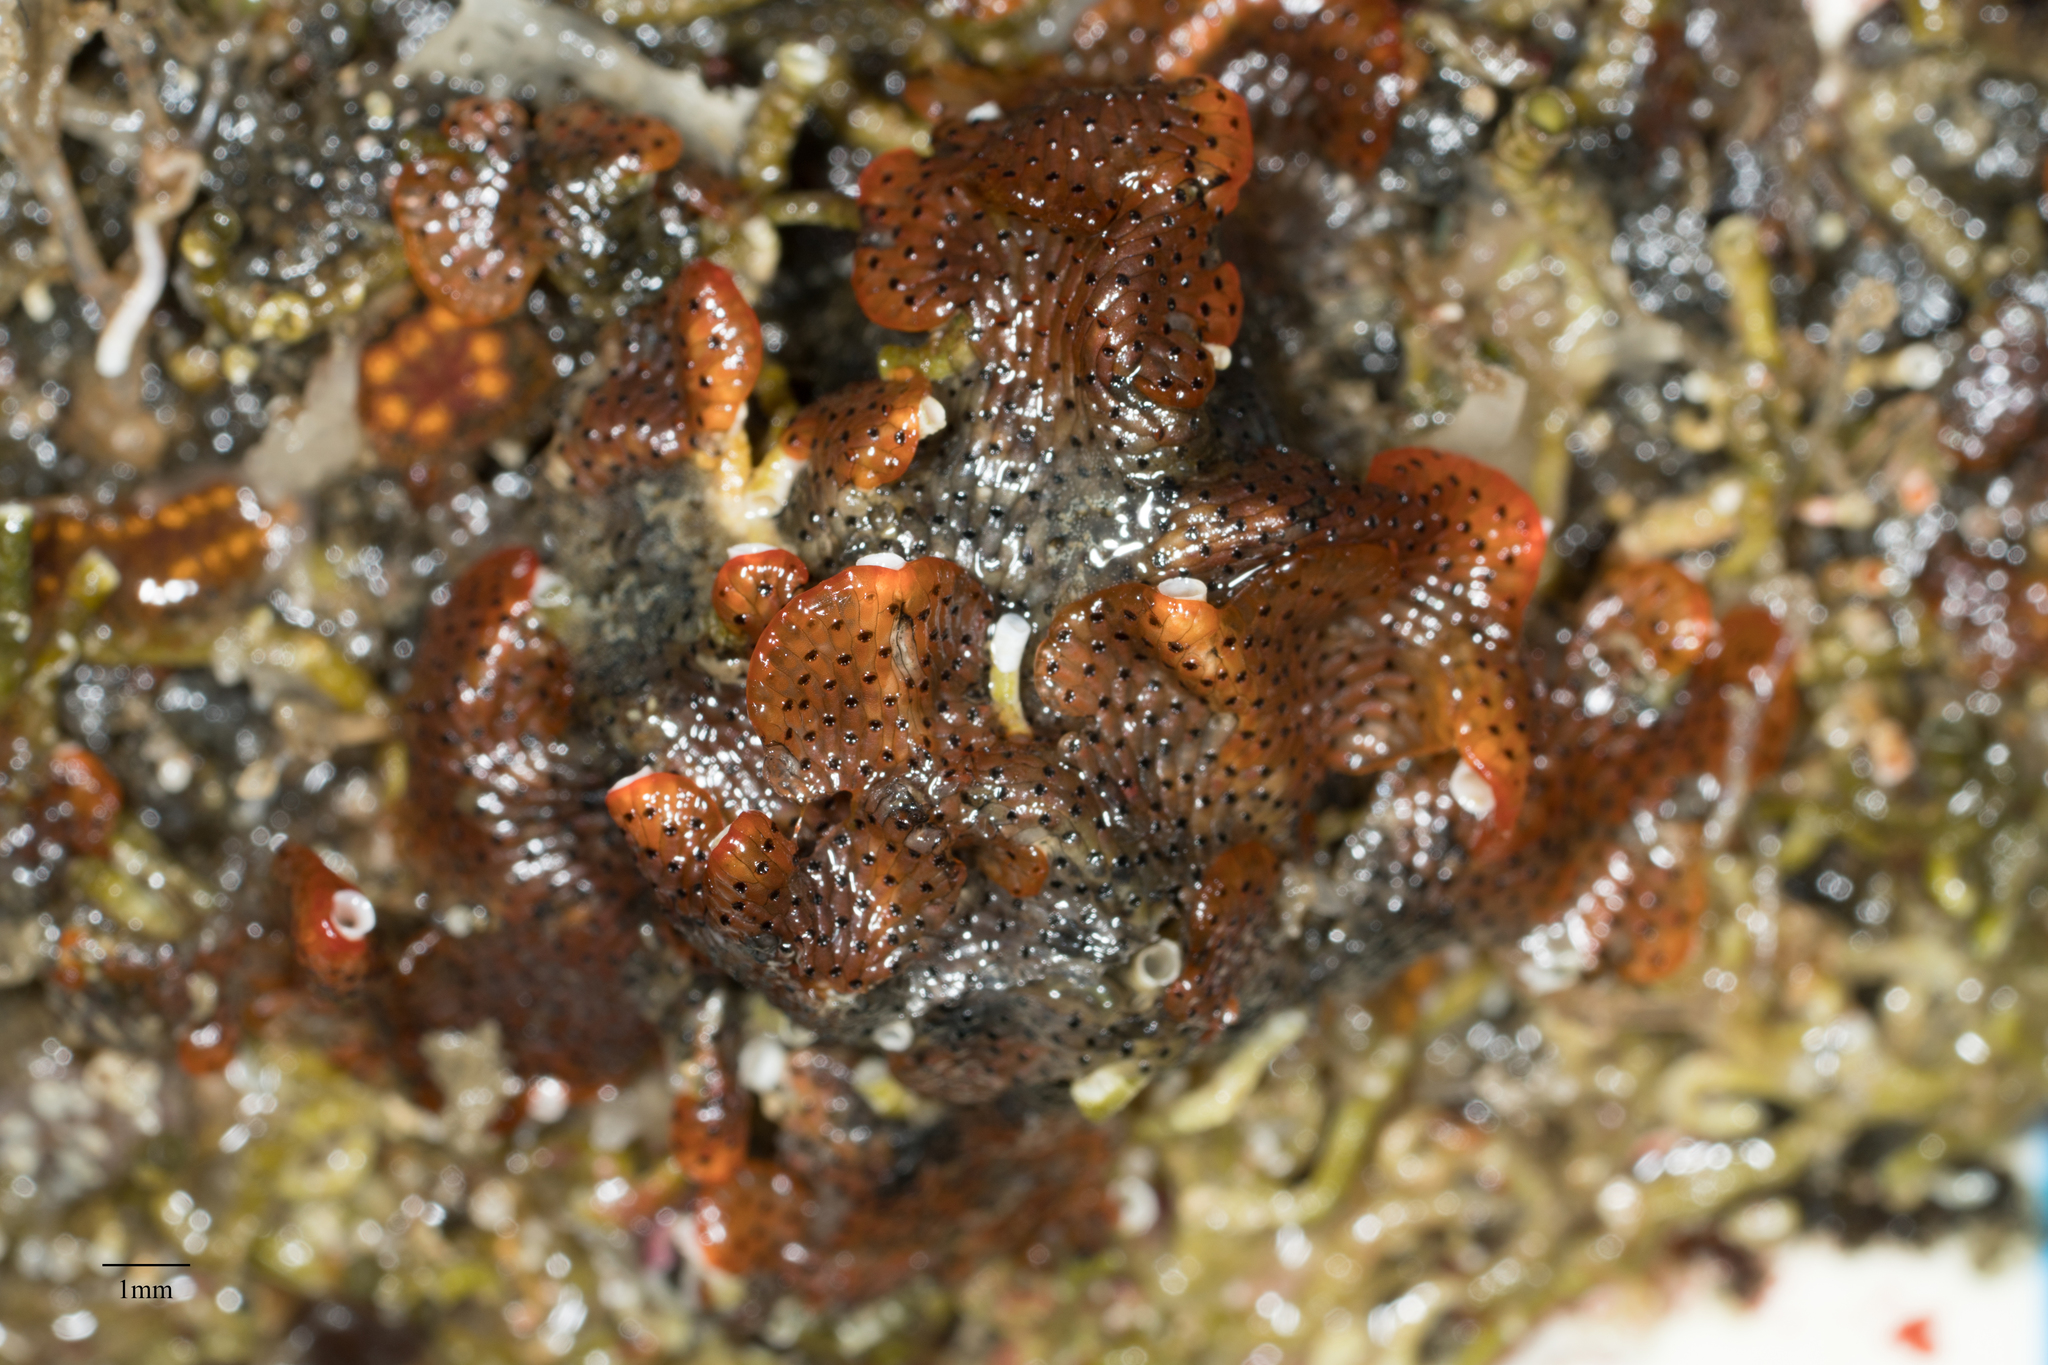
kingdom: Animalia
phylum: Bryozoa
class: Gymnolaemata
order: Cheilostomatida
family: Watersiporidae
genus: Watersipora
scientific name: Watersipora subtorquata
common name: Bryozoan
